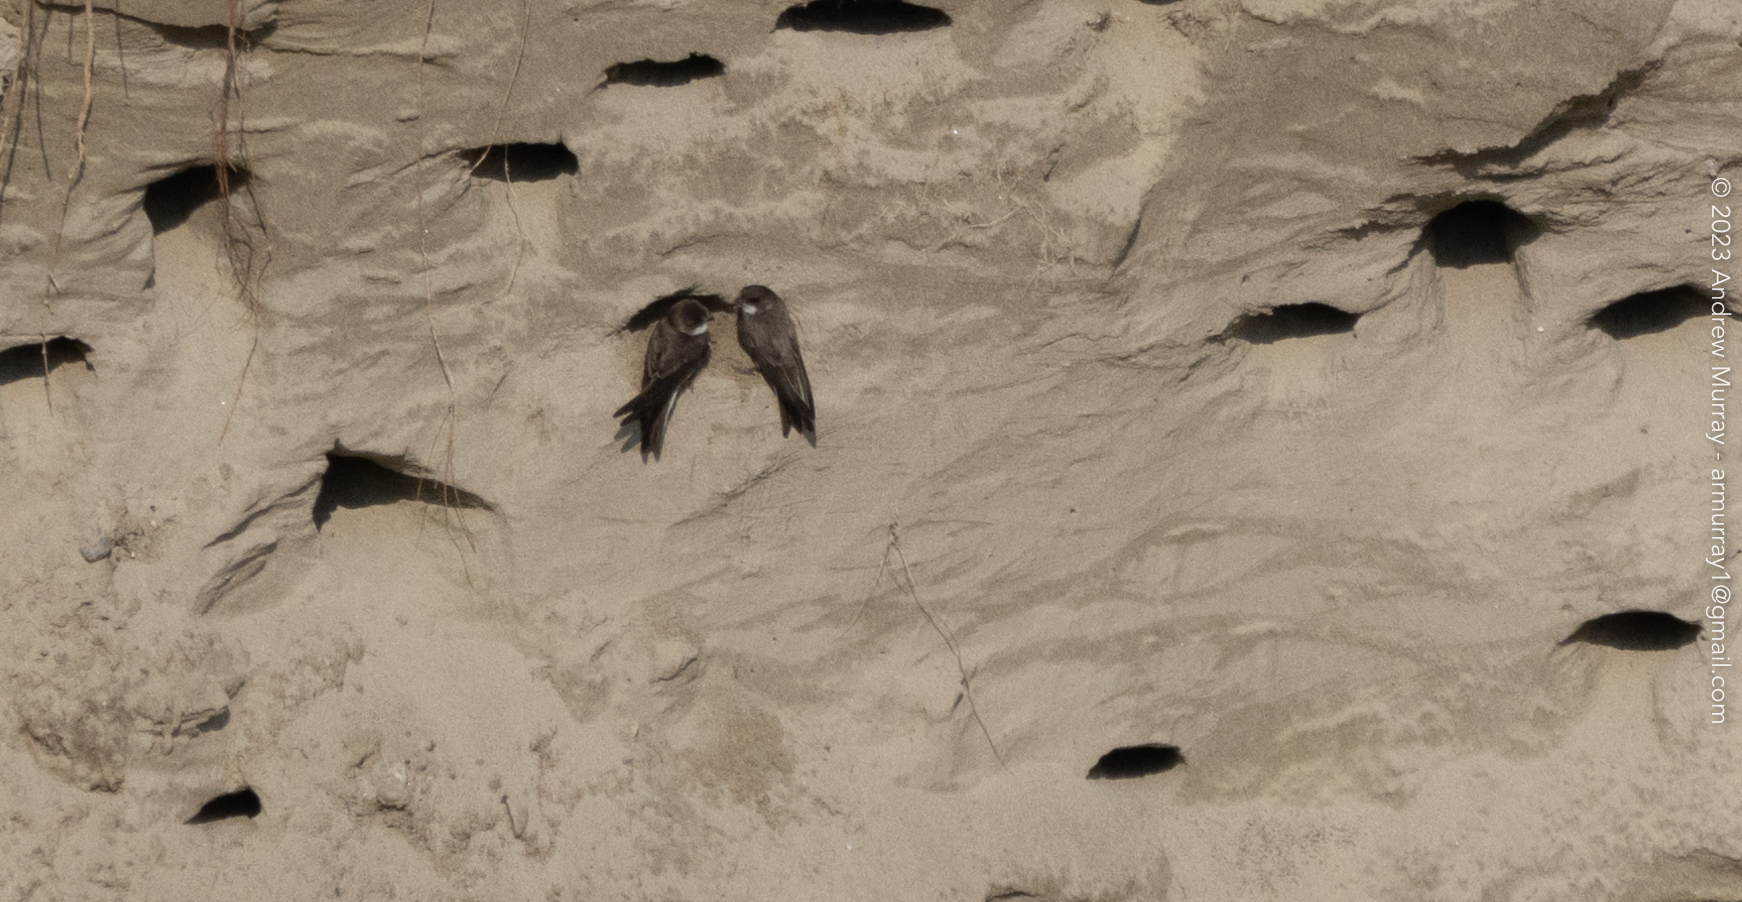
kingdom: Animalia
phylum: Chordata
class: Aves
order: Passeriformes
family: Hirundinidae
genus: Riparia
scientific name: Riparia riparia
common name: Sand martin
